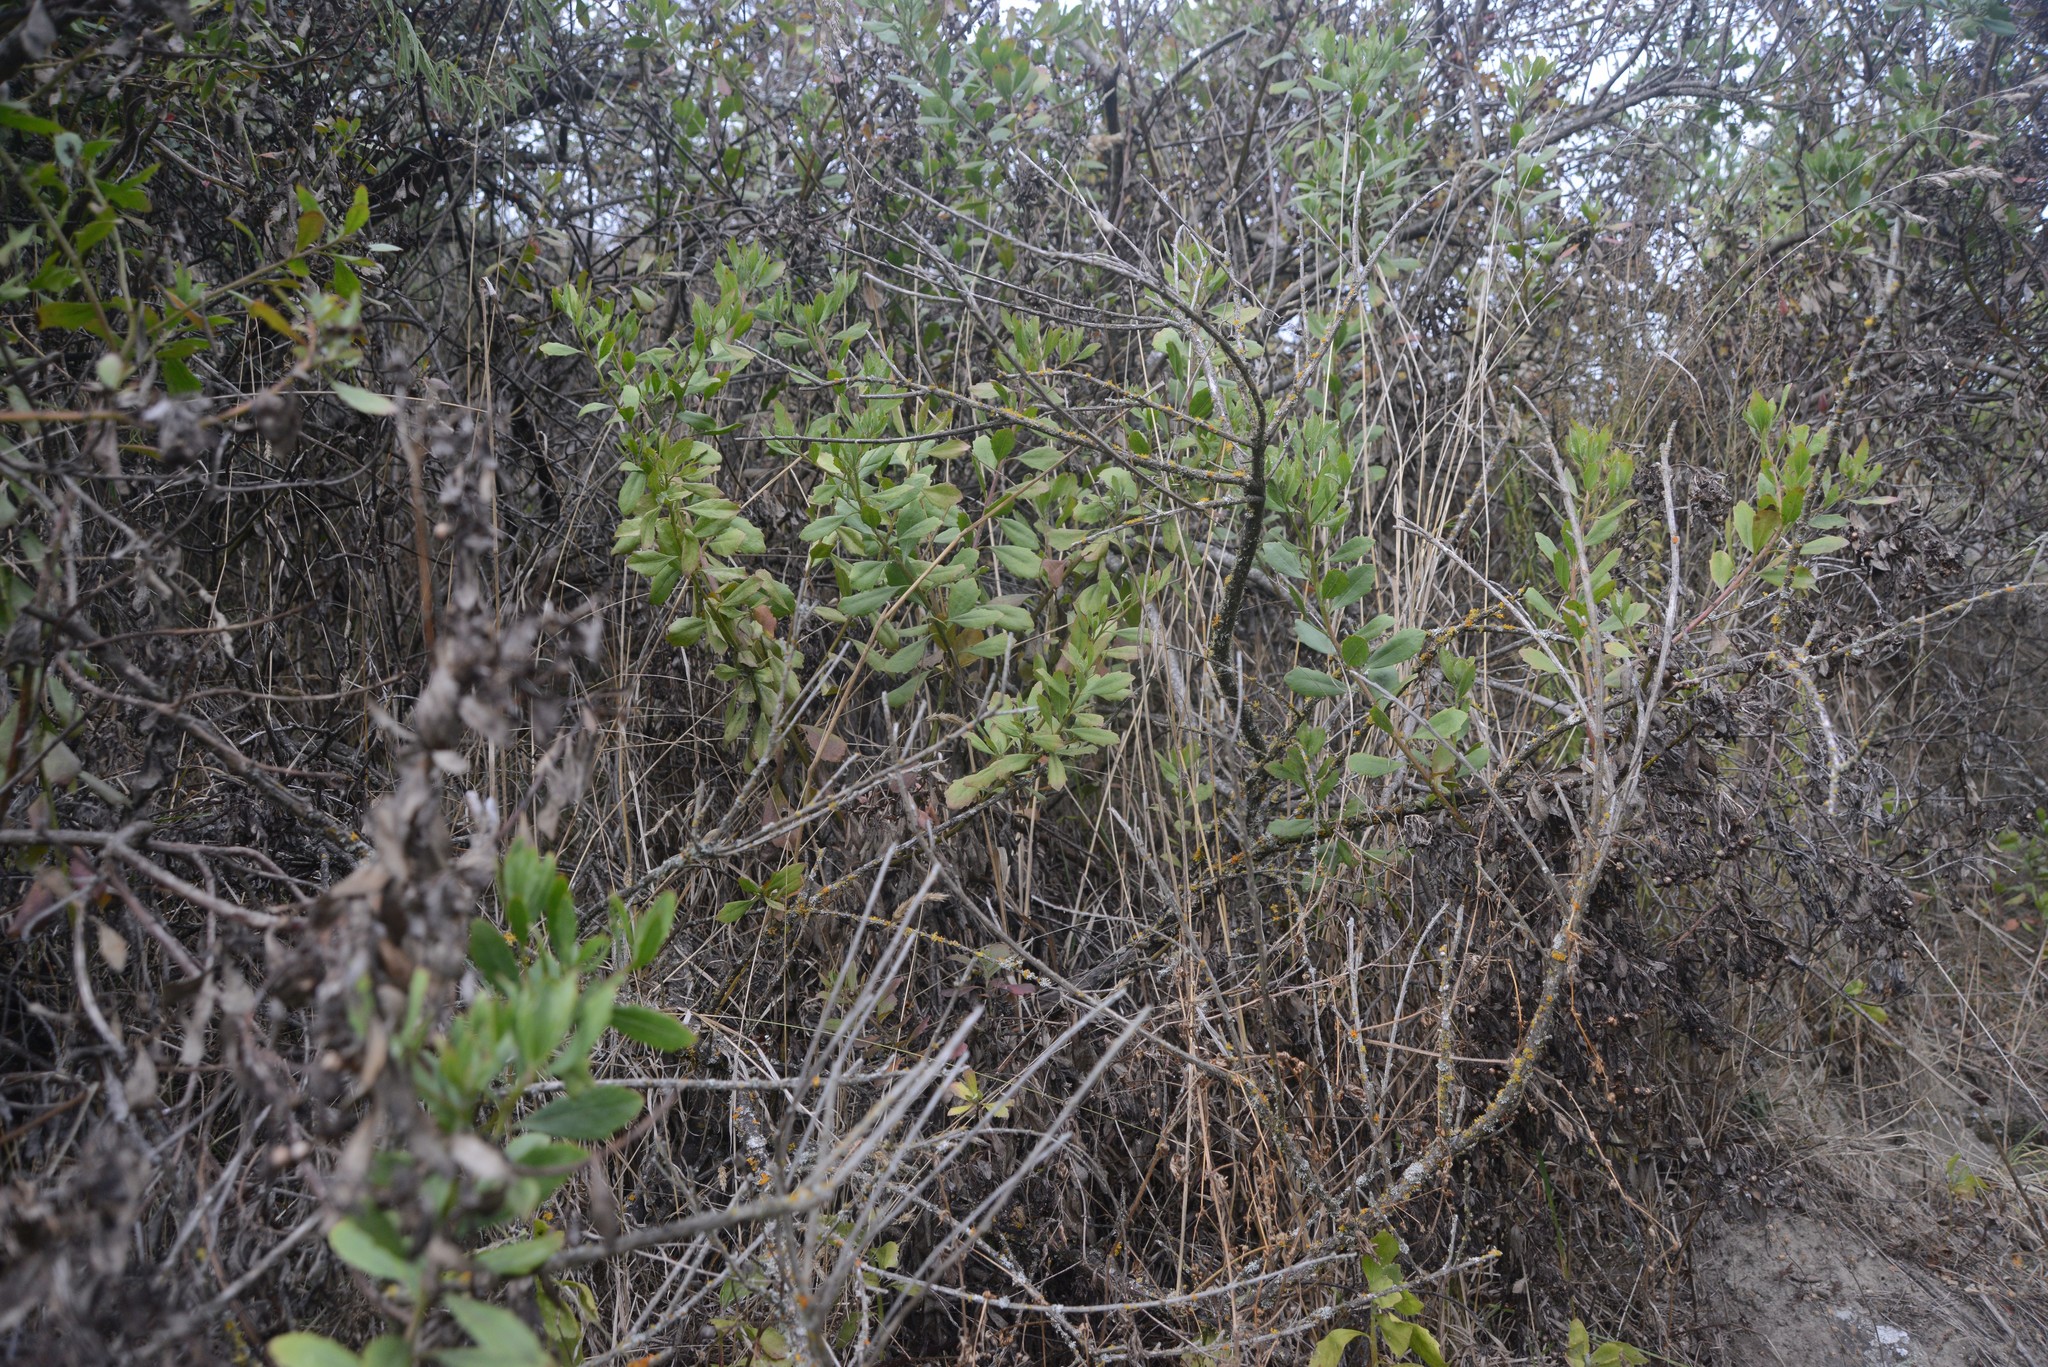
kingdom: Plantae
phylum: Tracheophyta
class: Magnoliopsida
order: Asterales
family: Asteraceae
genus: Osteospermum
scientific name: Osteospermum moniliferum
